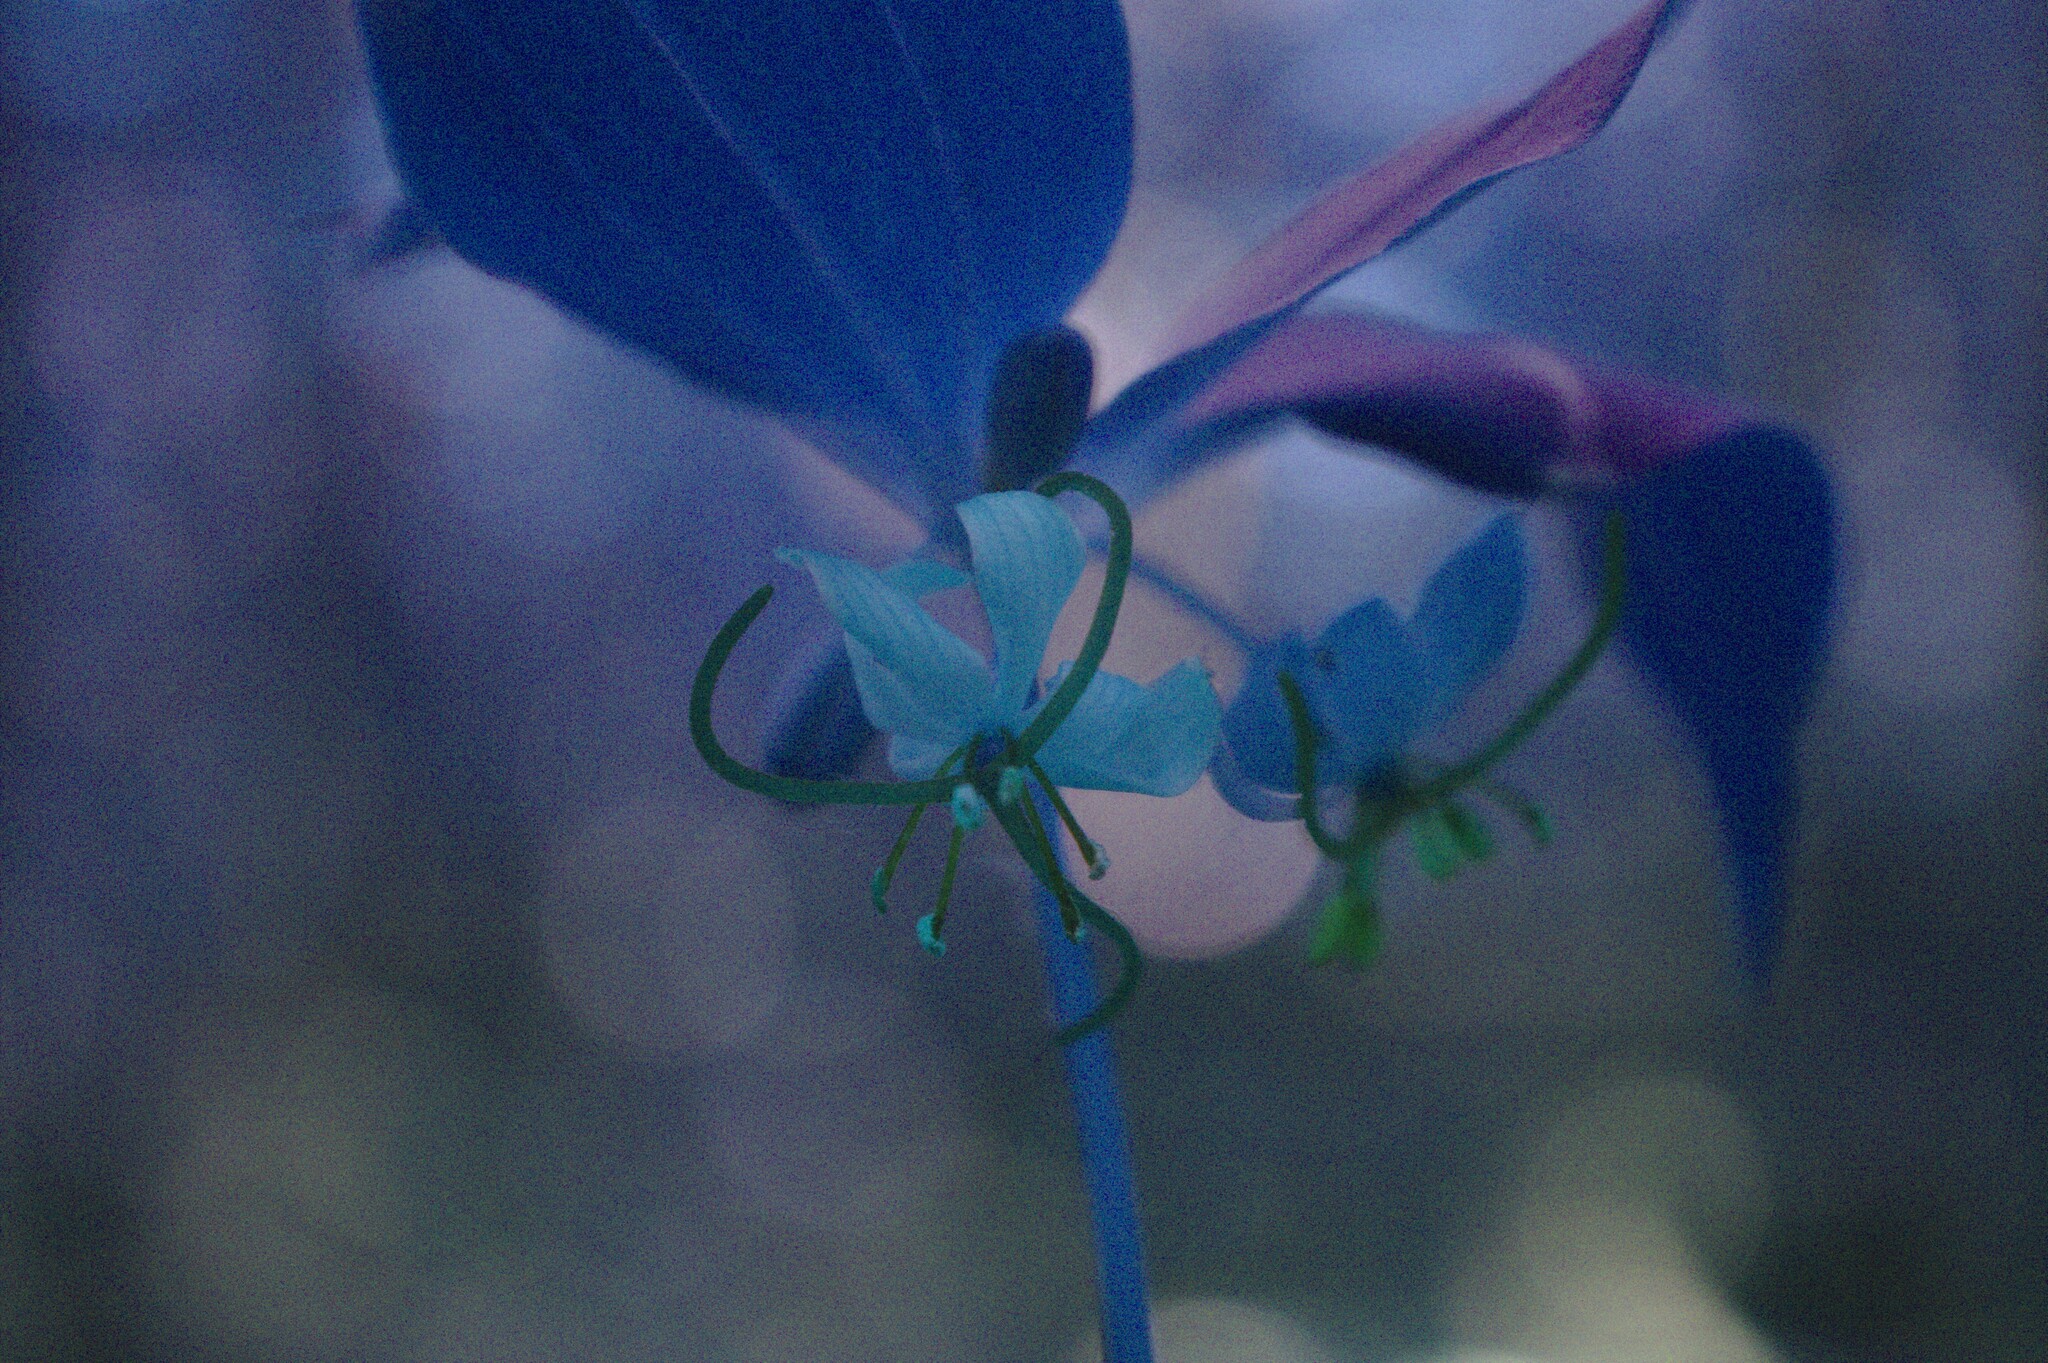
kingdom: Plantae
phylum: Tracheophyta
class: Liliopsida
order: Liliales
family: Liliaceae
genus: Medeola
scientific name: Medeola virginiana
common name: Indian cucumber-root
